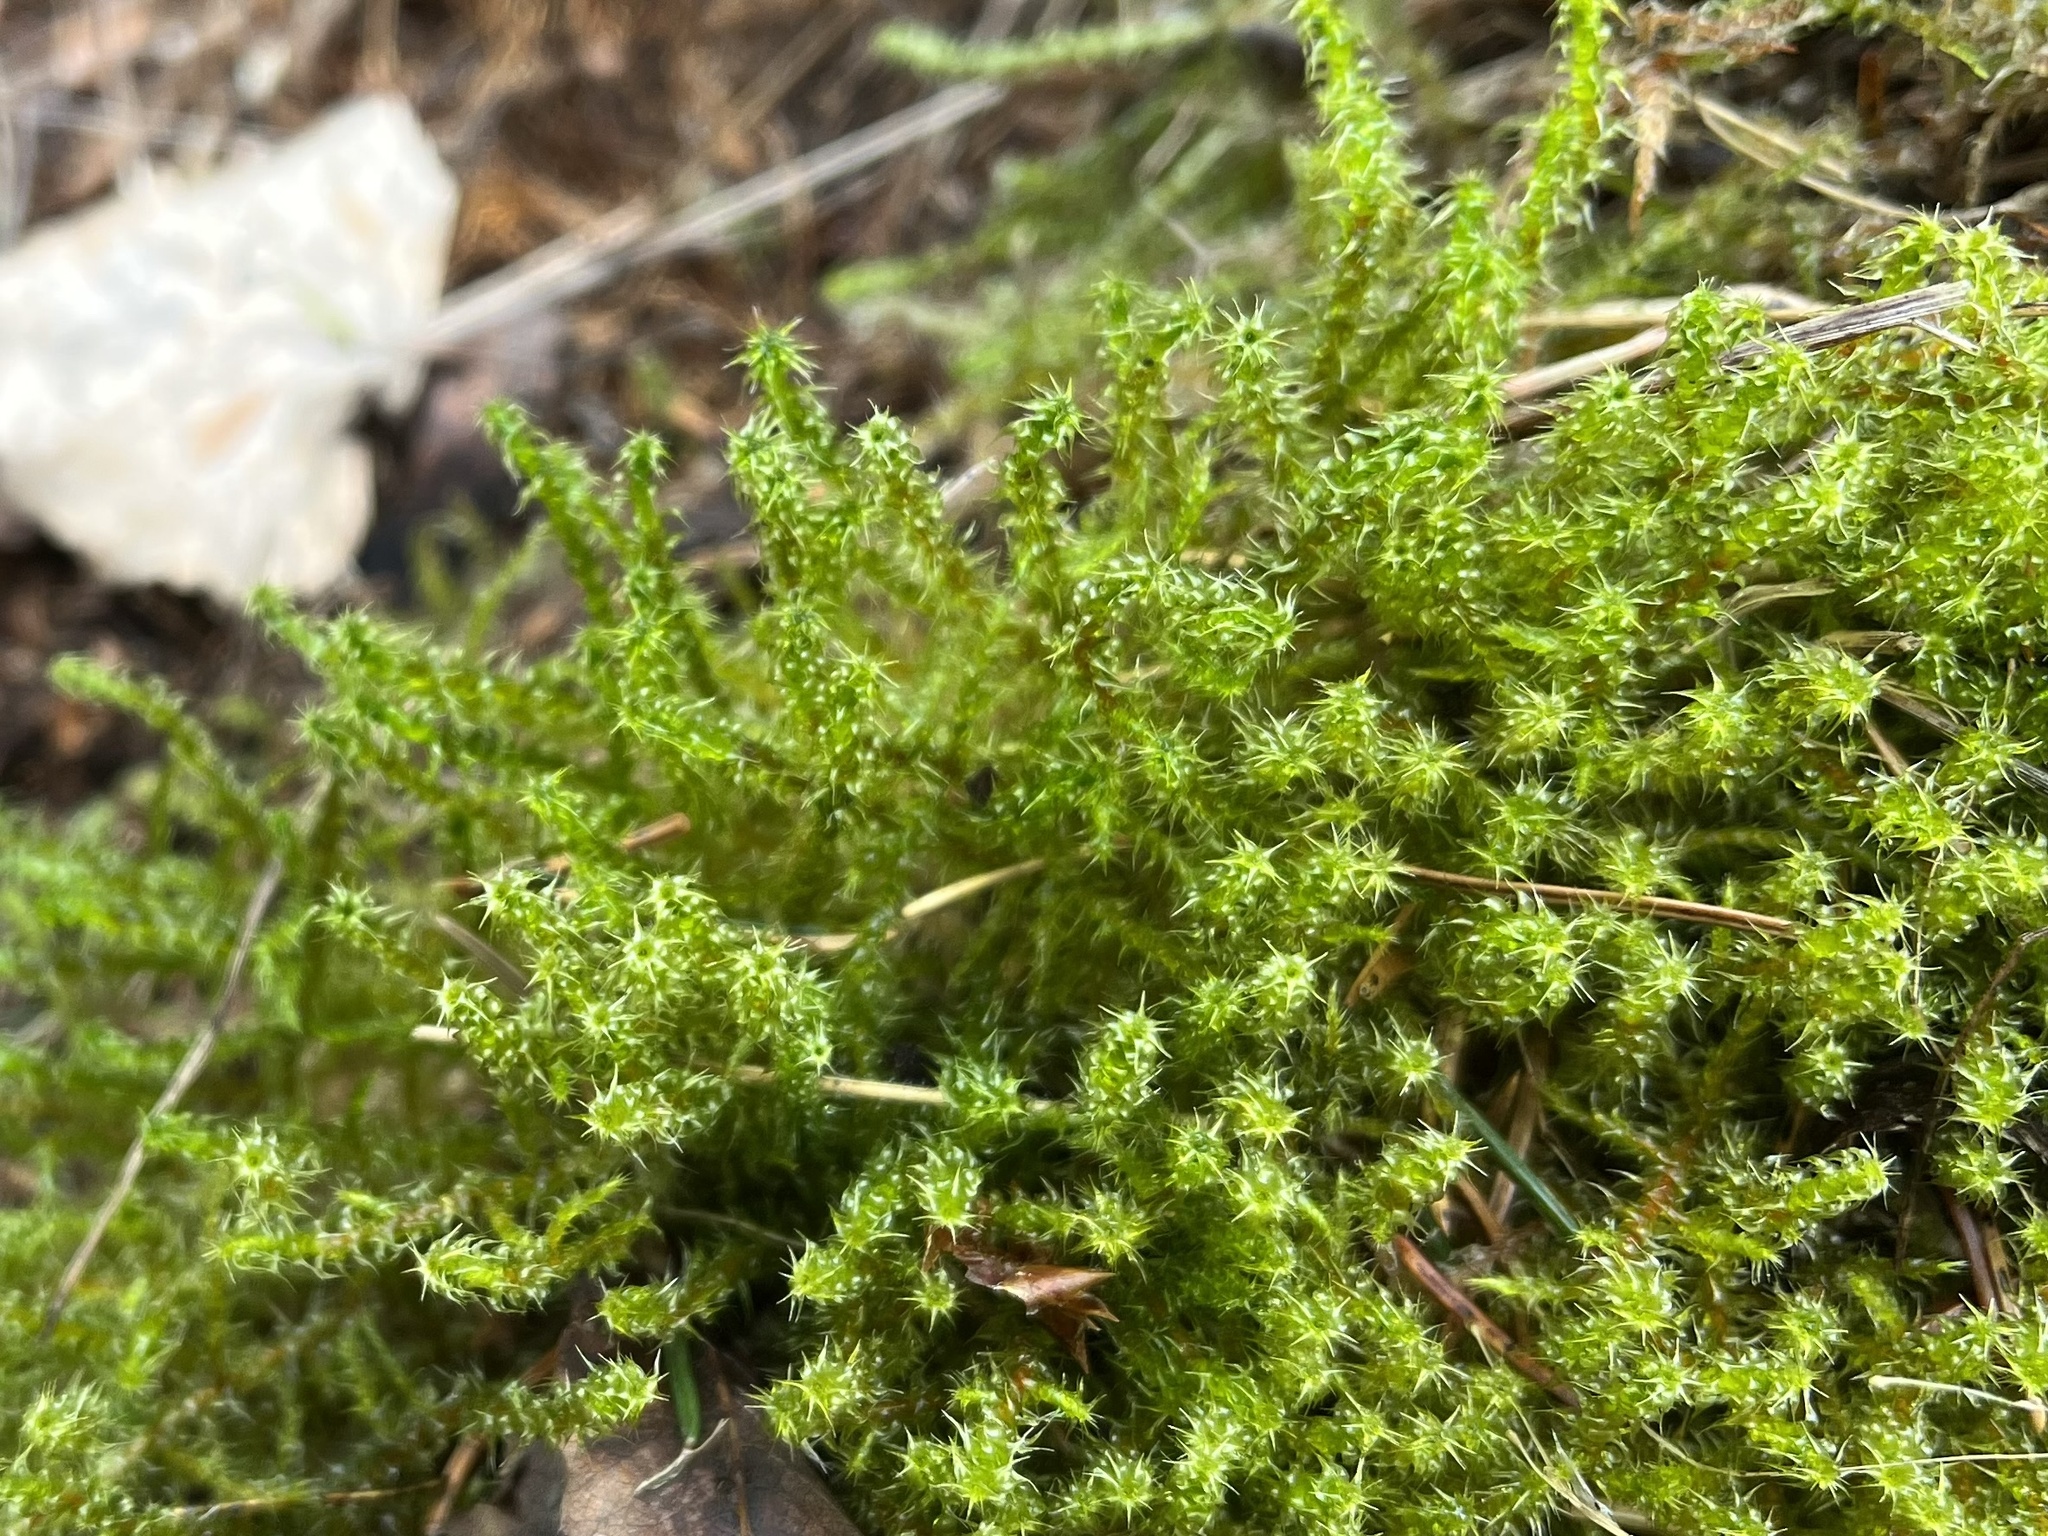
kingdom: Plantae
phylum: Bryophyta
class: Bryopsida
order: Hypnales
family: Hylocomiaceae
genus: Rhytidiadelphus
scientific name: Rhytidiadelphus squarrosus
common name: Springy turf-moss
